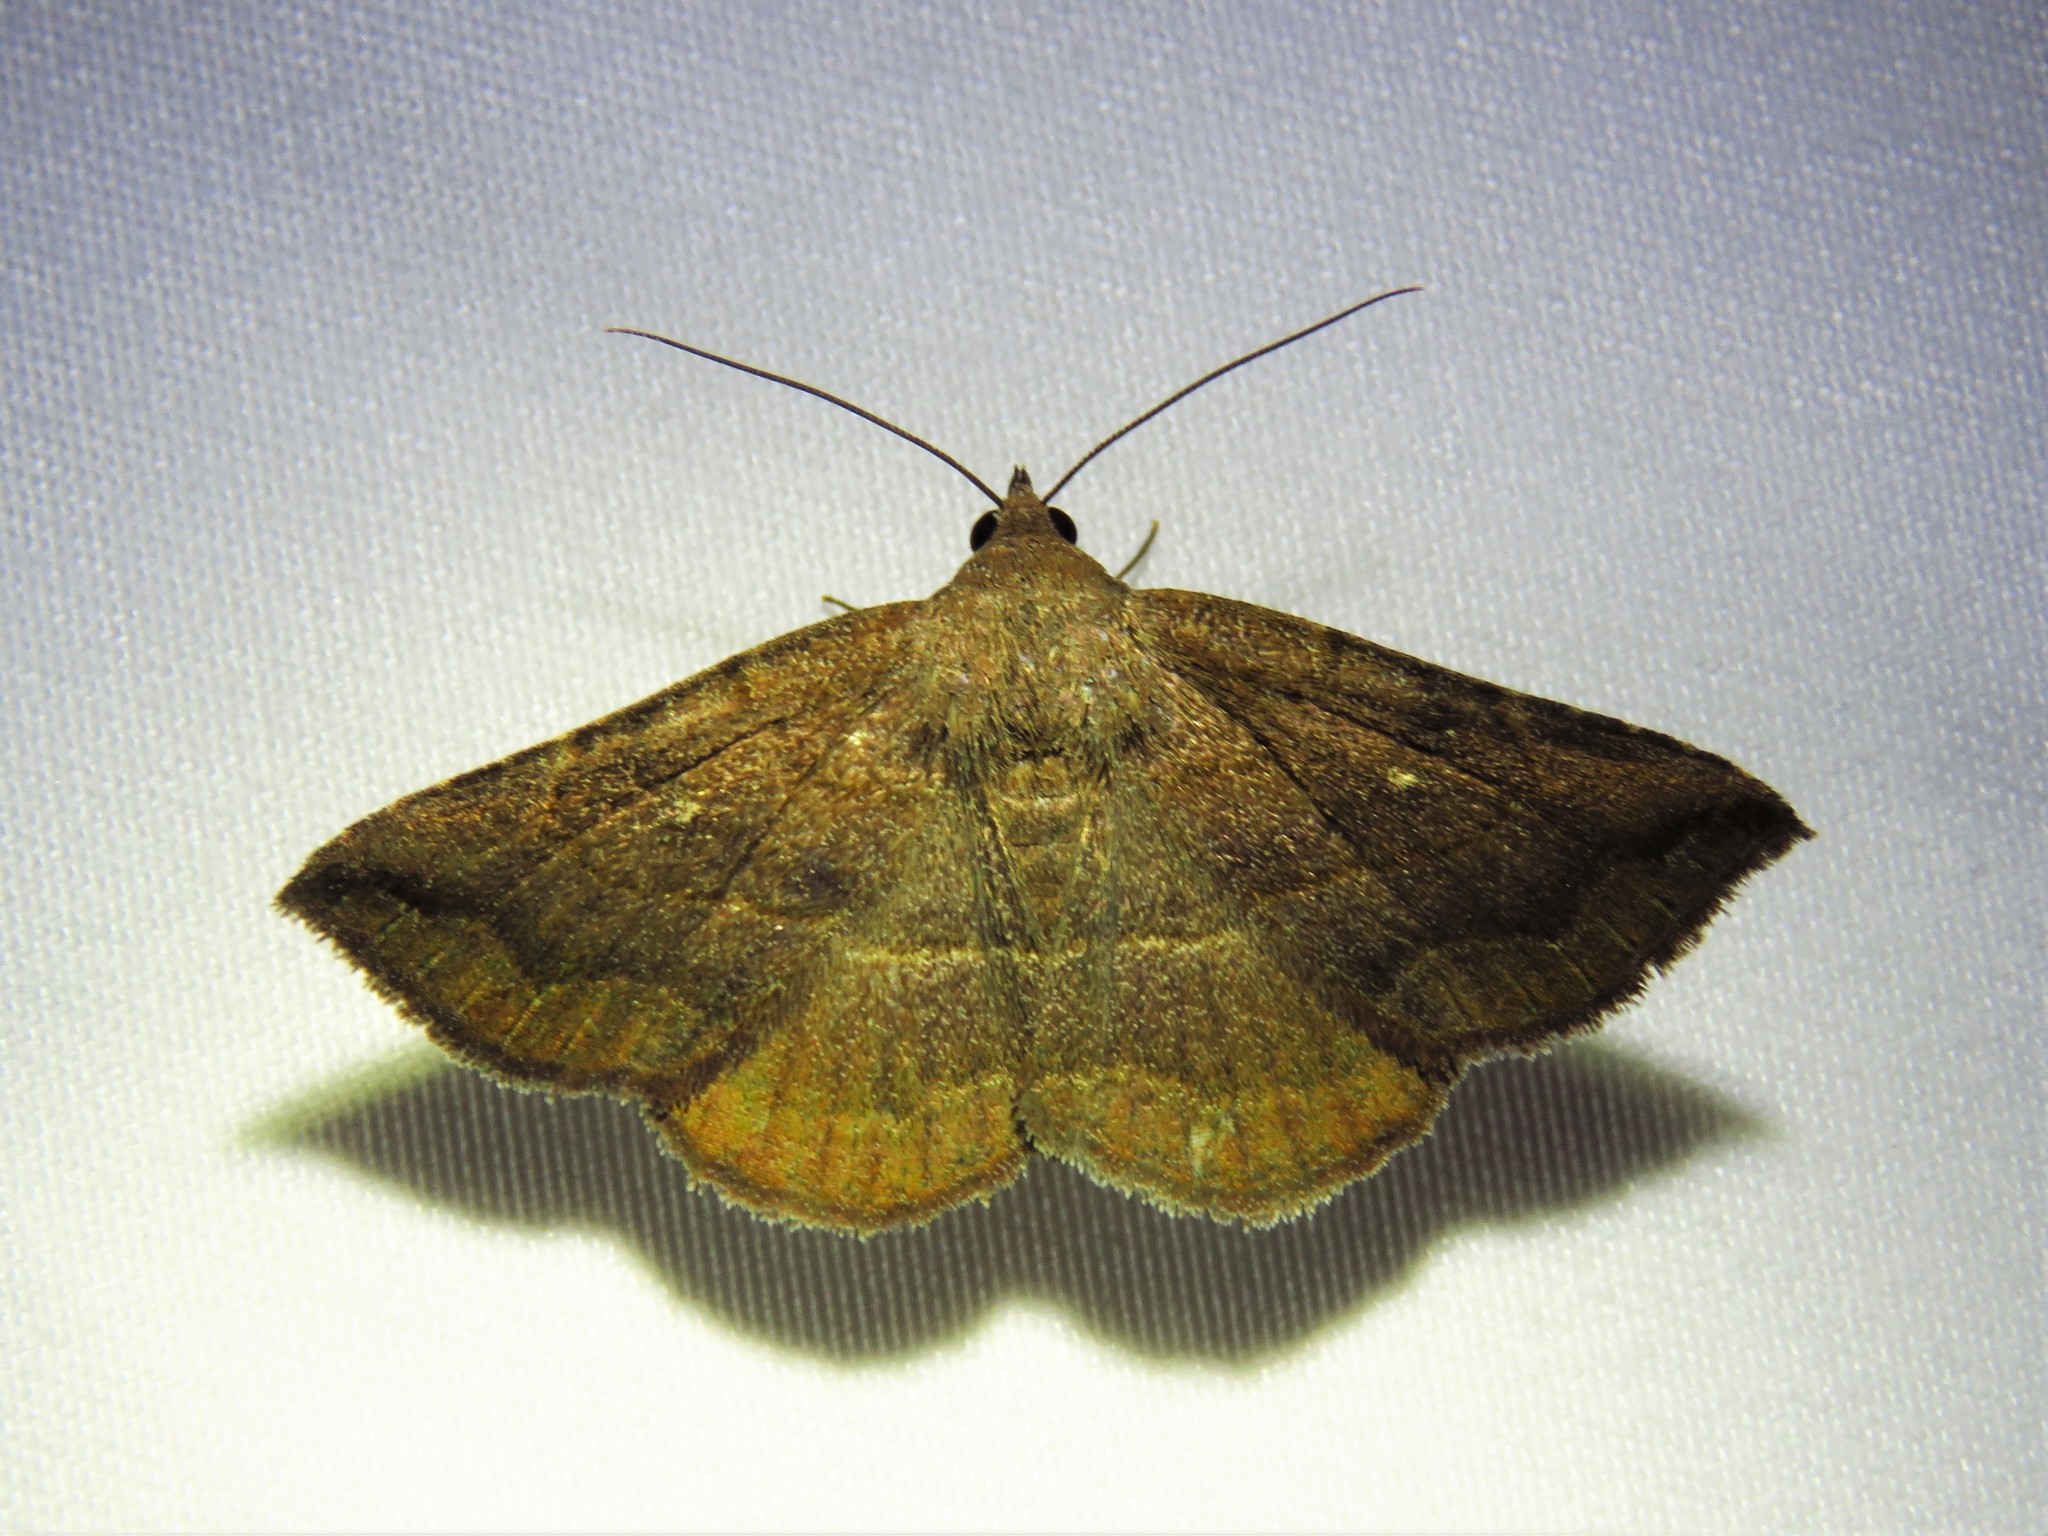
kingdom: Animalia
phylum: Arthropoda
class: Insecta
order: Lepidoptera
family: Erebidae
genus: Lesmone
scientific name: Lesmone detrahens
